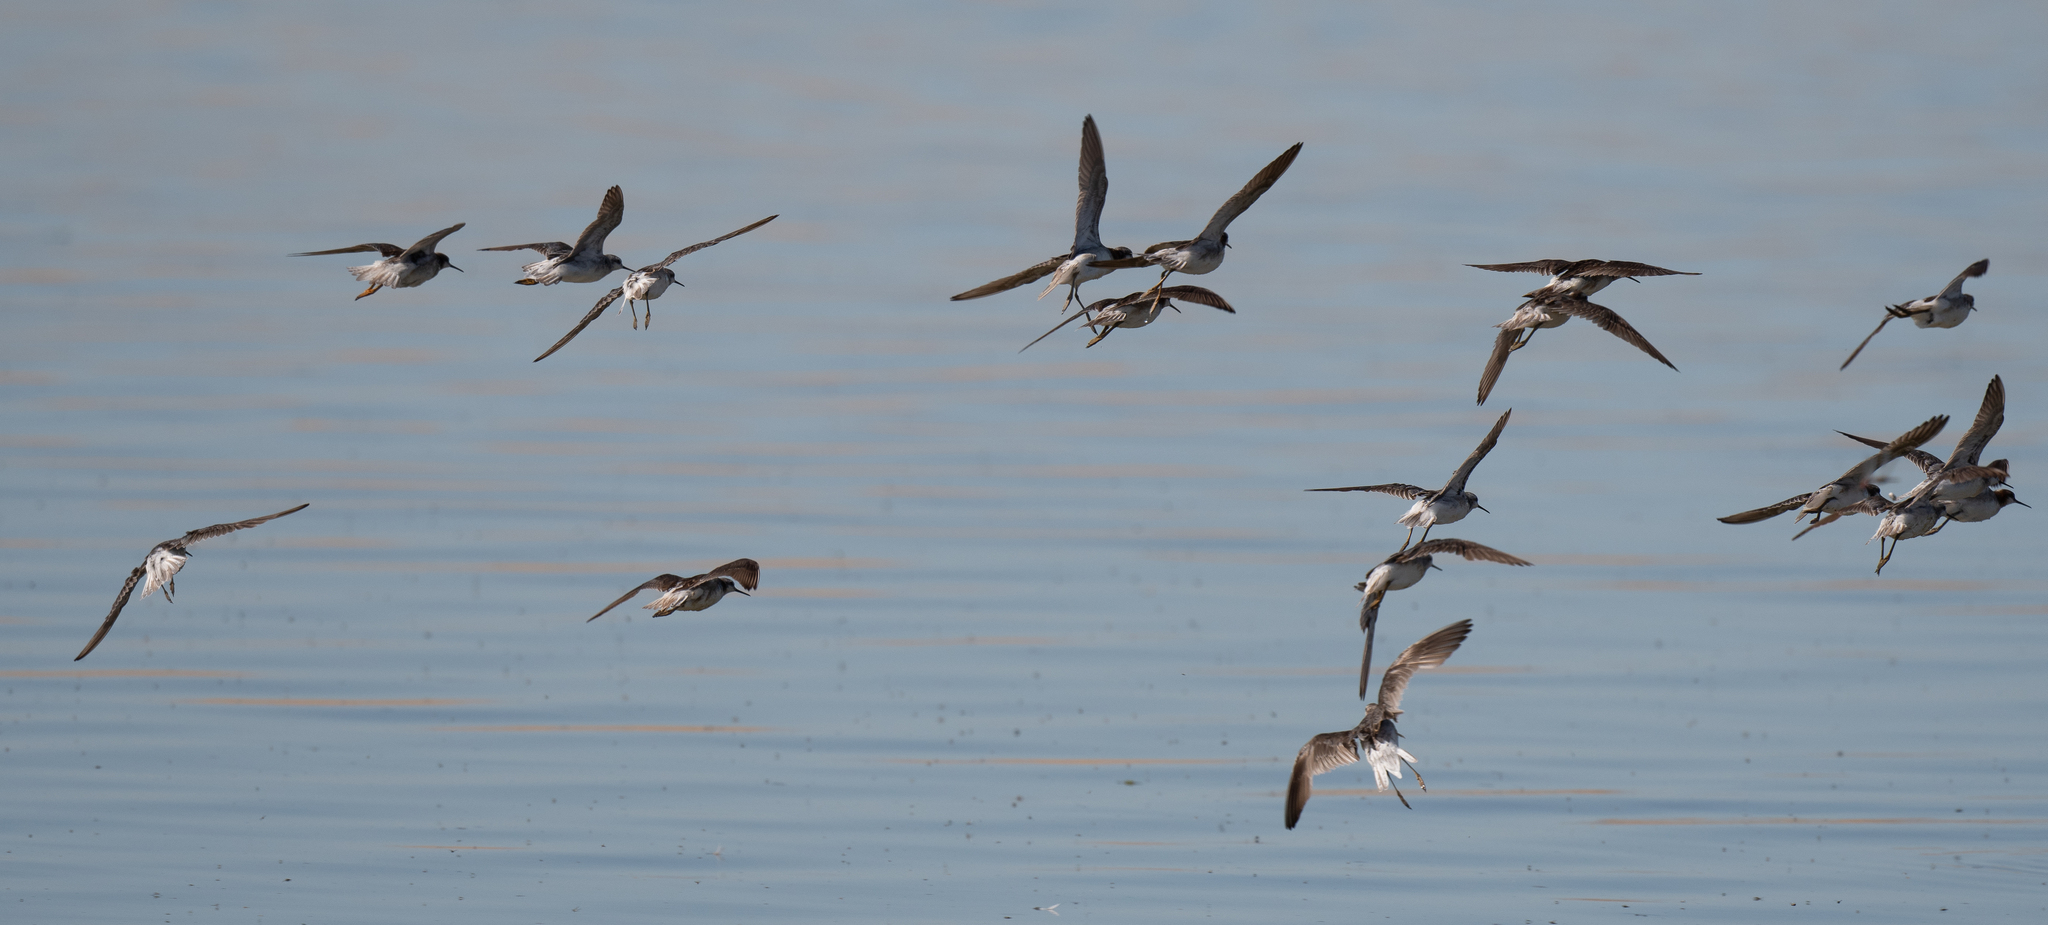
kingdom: Animalia
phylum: Chordata
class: Aves
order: Charadriiformes
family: Scolopacidae
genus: Phalaropus
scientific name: Phalaropus tricolor
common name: Wilson's phalarope
